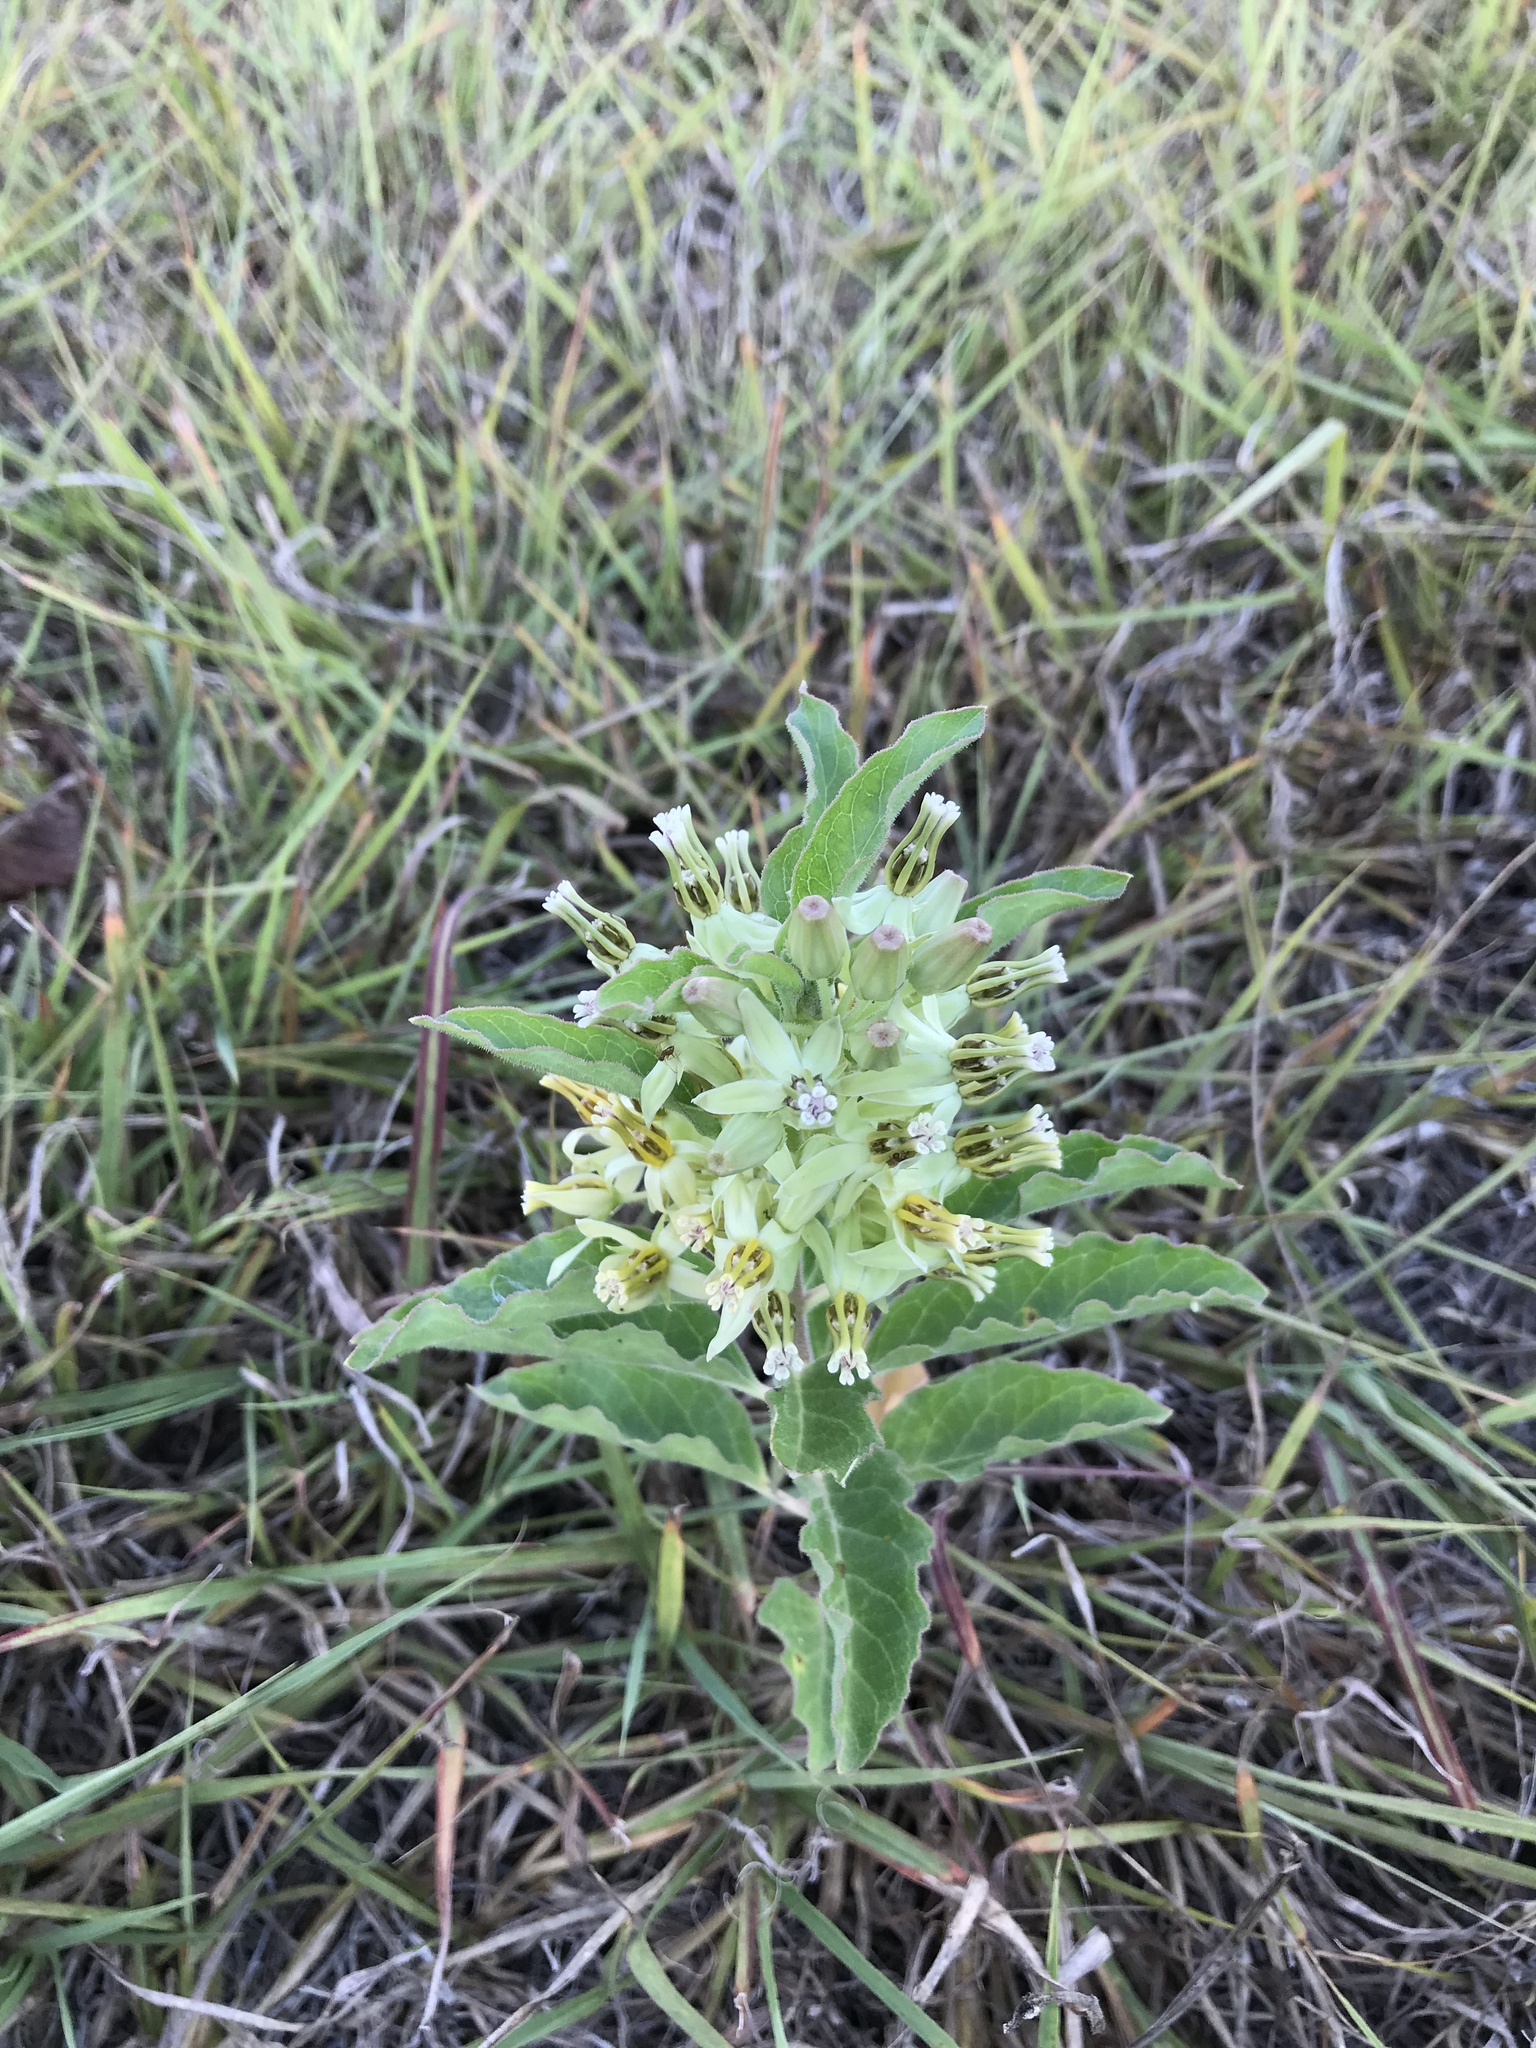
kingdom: Plantae
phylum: Tracheophyta
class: Magnoliopsida
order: Gentianales
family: Apocynaceae
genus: Asclepias
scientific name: Asclepias oenotheroides
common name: Zizotes milkweed
